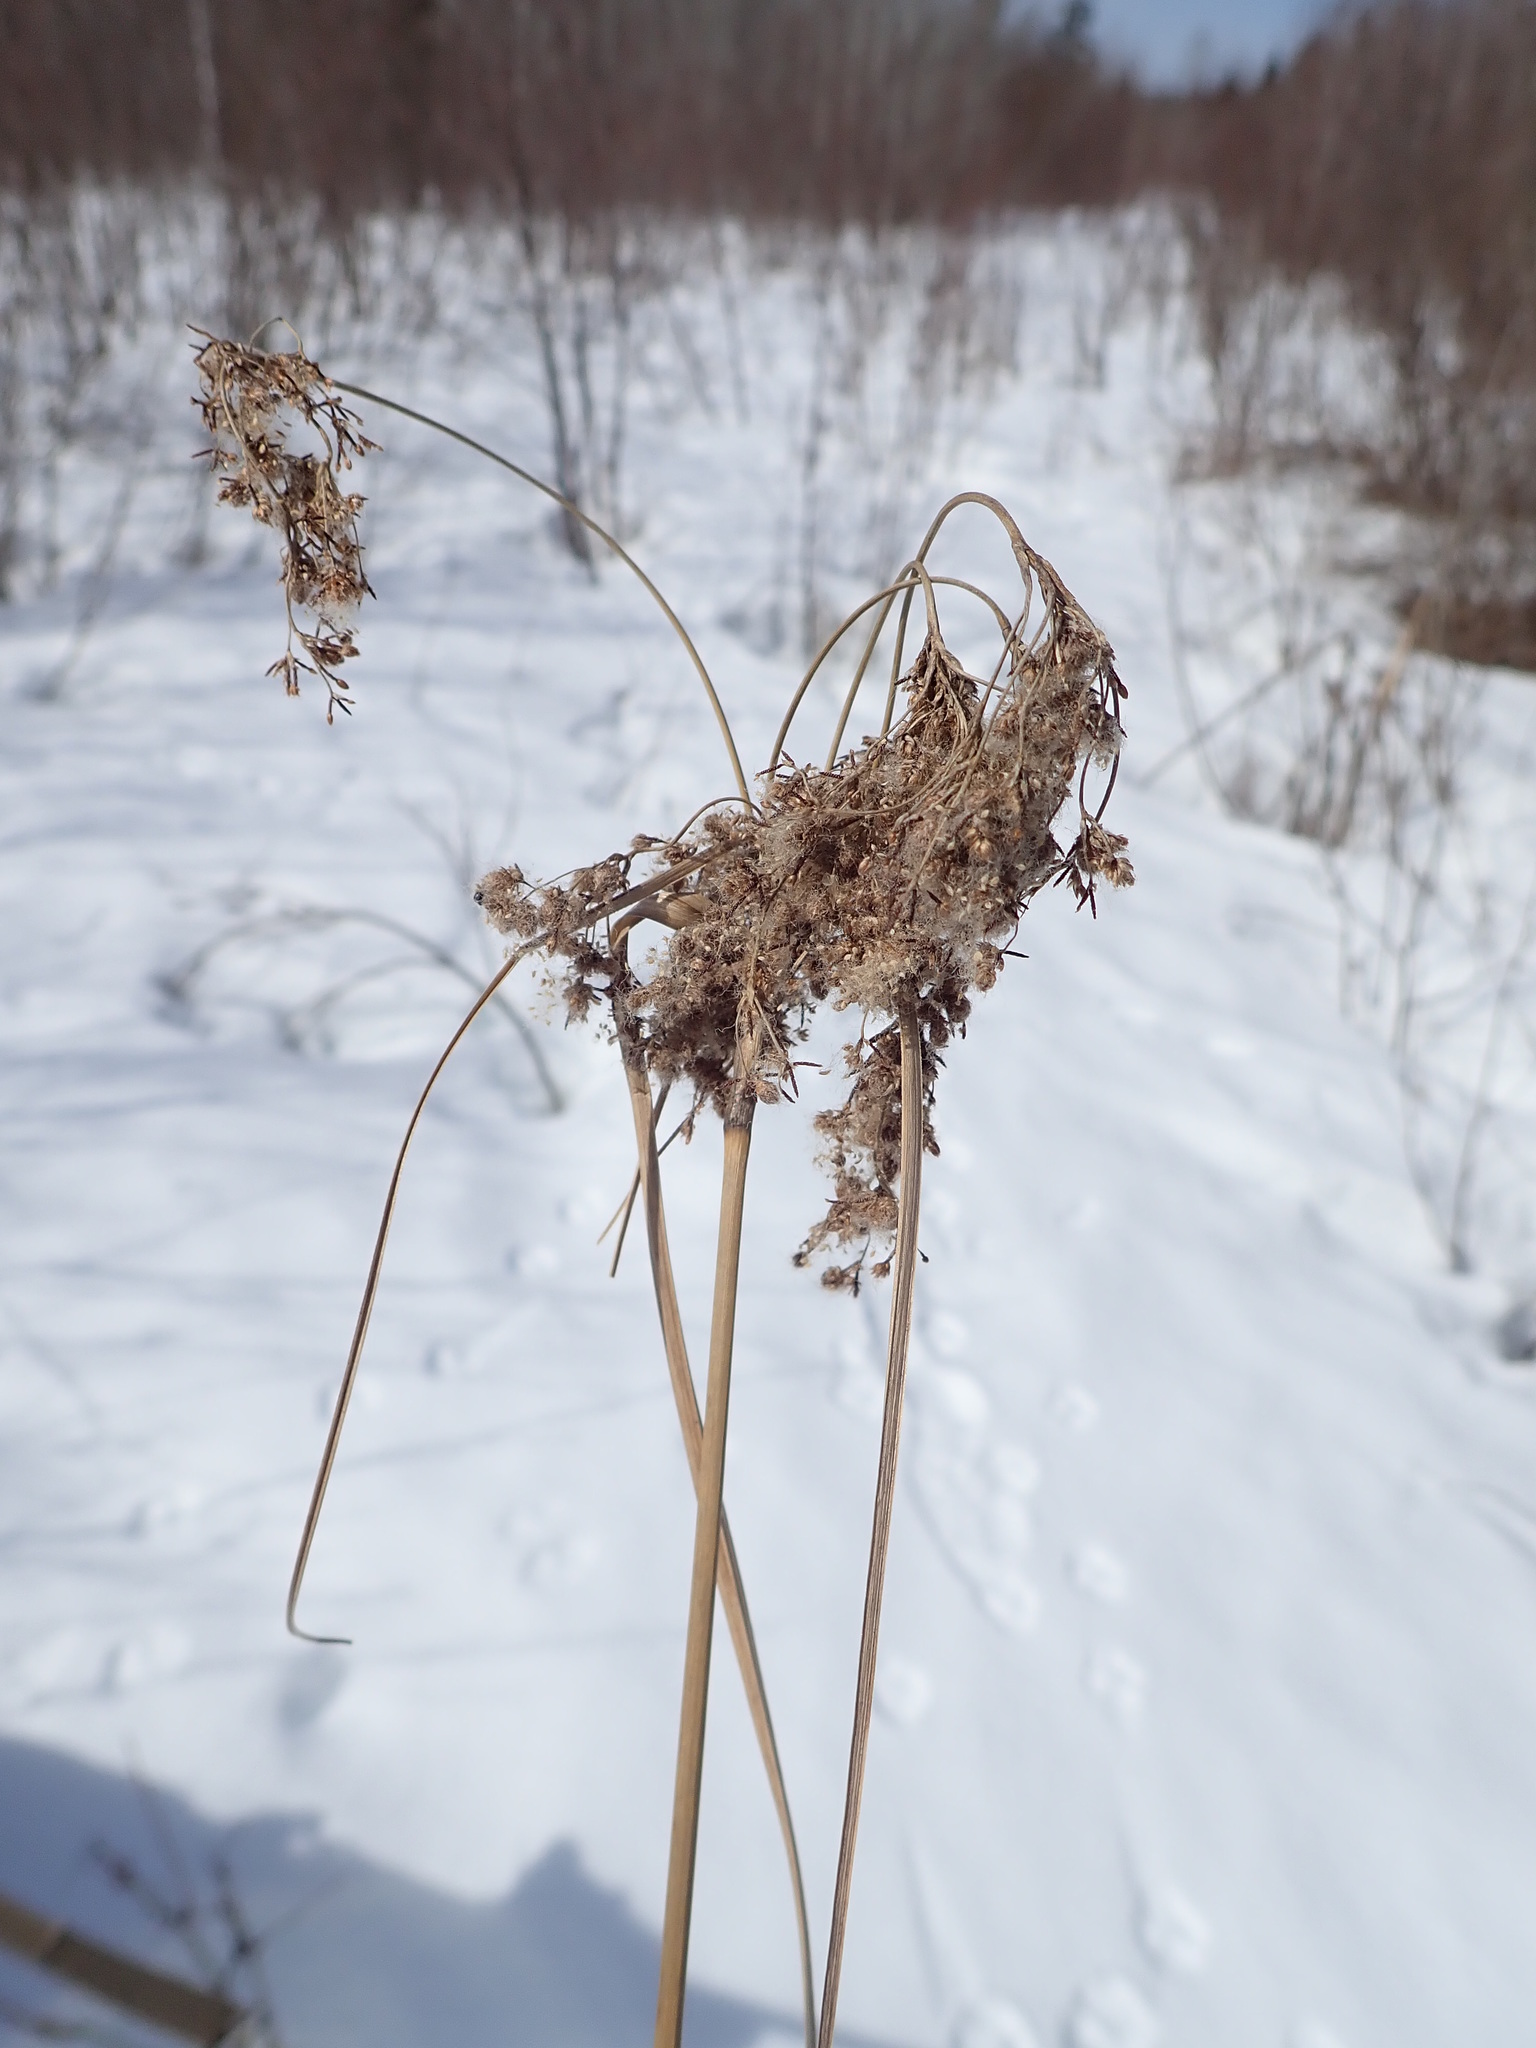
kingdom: Plantae
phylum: Tracheophyta
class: Liliopsida
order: Poales
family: Cyperaceae
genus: Scirpus
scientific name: Scirpus cyperinus
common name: Black-sheathed bulrush
